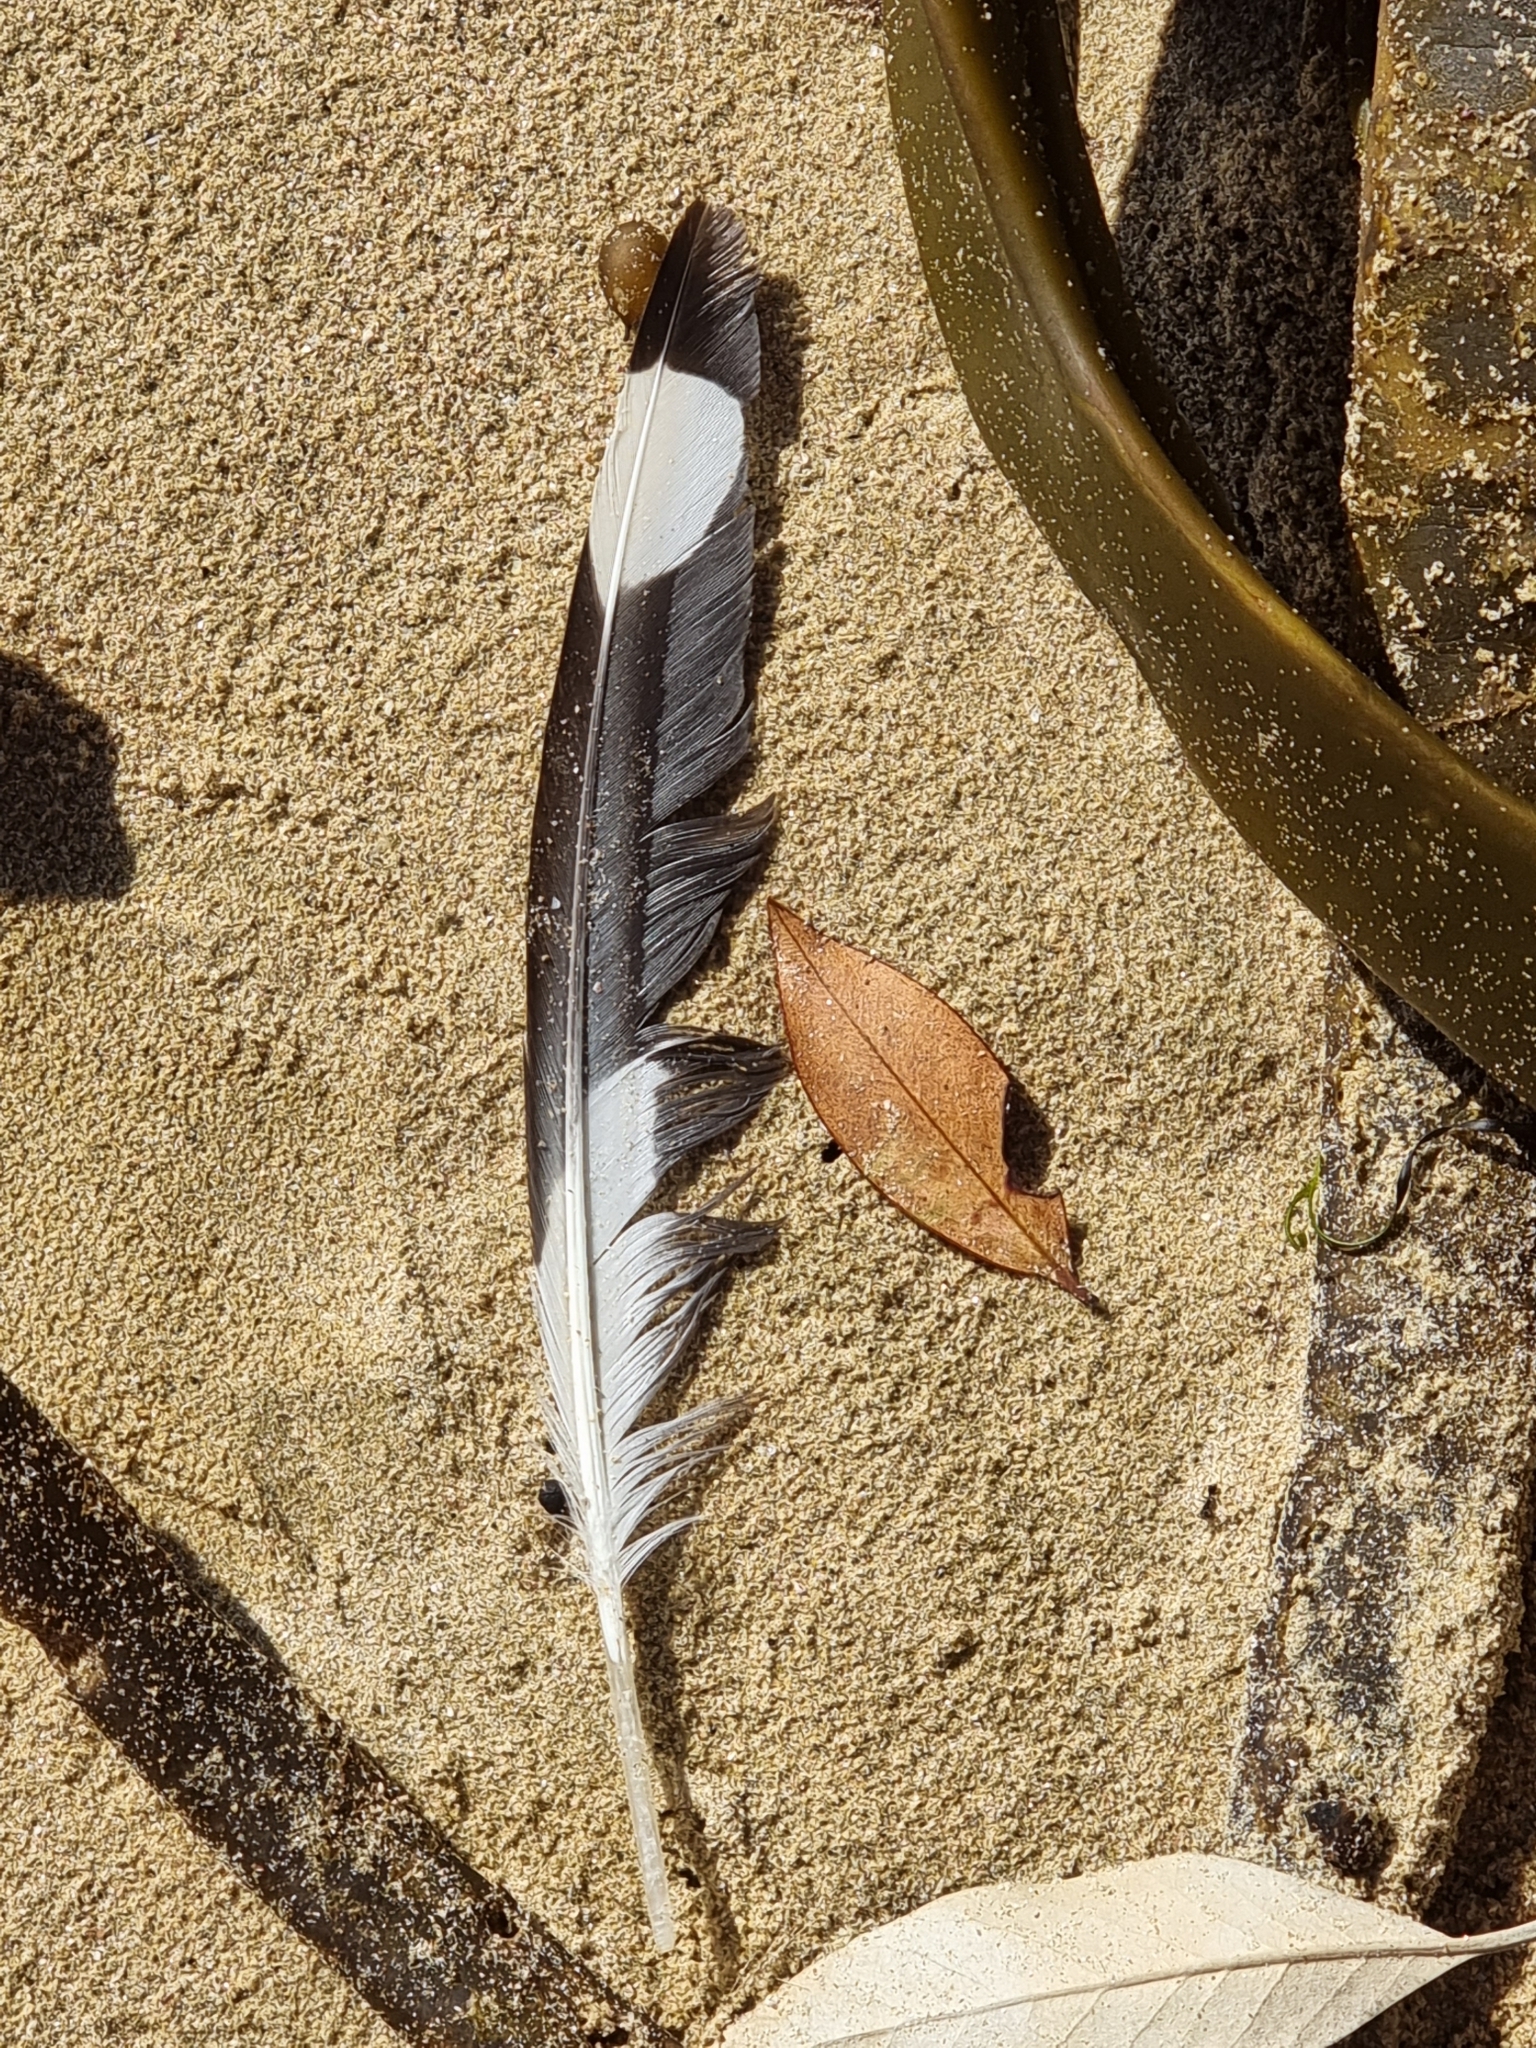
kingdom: Animalia
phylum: Chordata
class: Aves
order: Charadriiformes
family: Laridae
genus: Chroicocephalus
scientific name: Chroicocephalus novaehollandiae
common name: Silver gull
